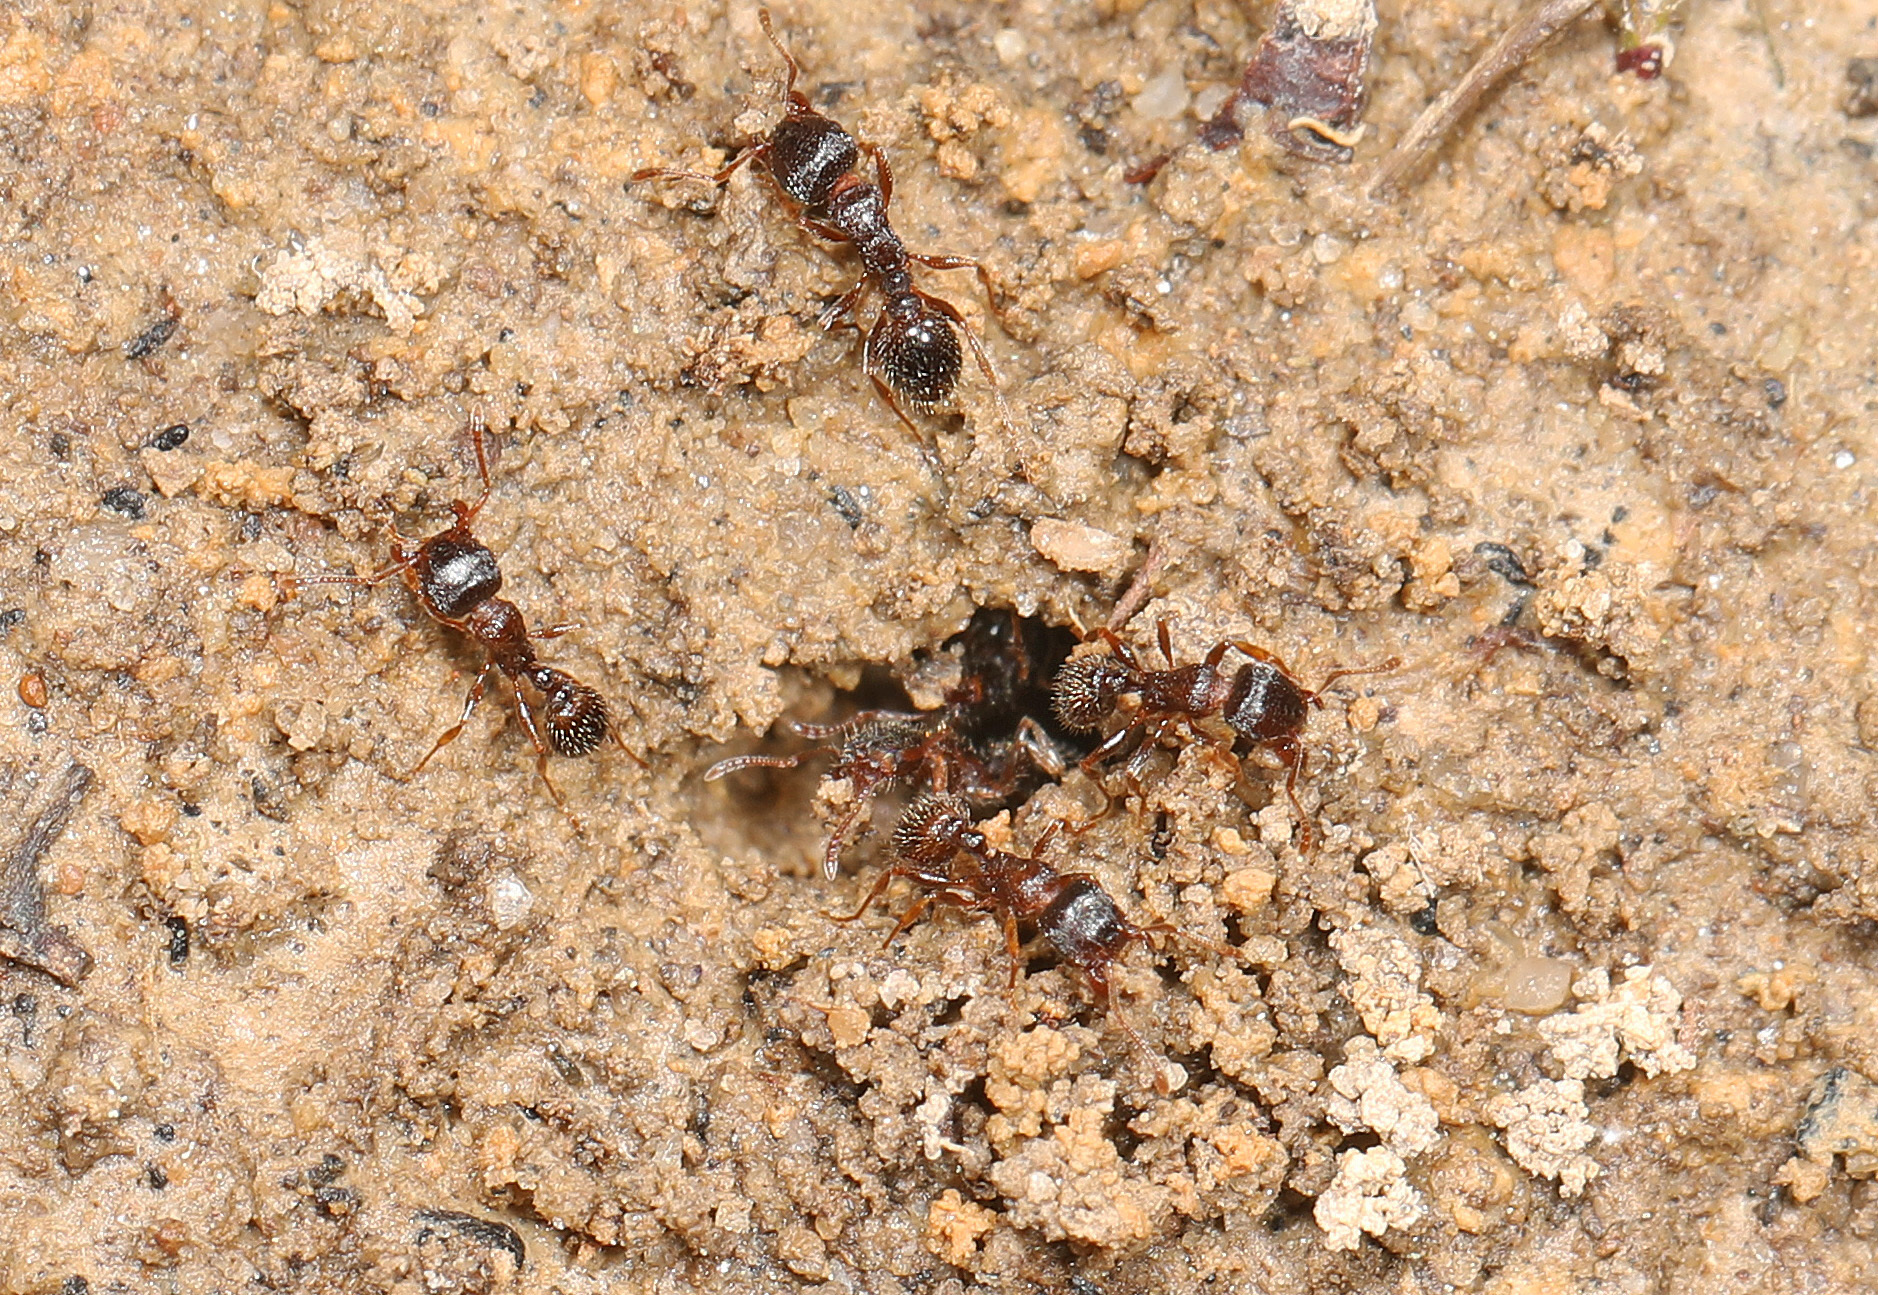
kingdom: Animalia
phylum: Arthropoda
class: Insecta
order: Hymenoptera
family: Formicidae
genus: Tetramorium
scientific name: Tetramorium immigrans
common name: Pavement ant
